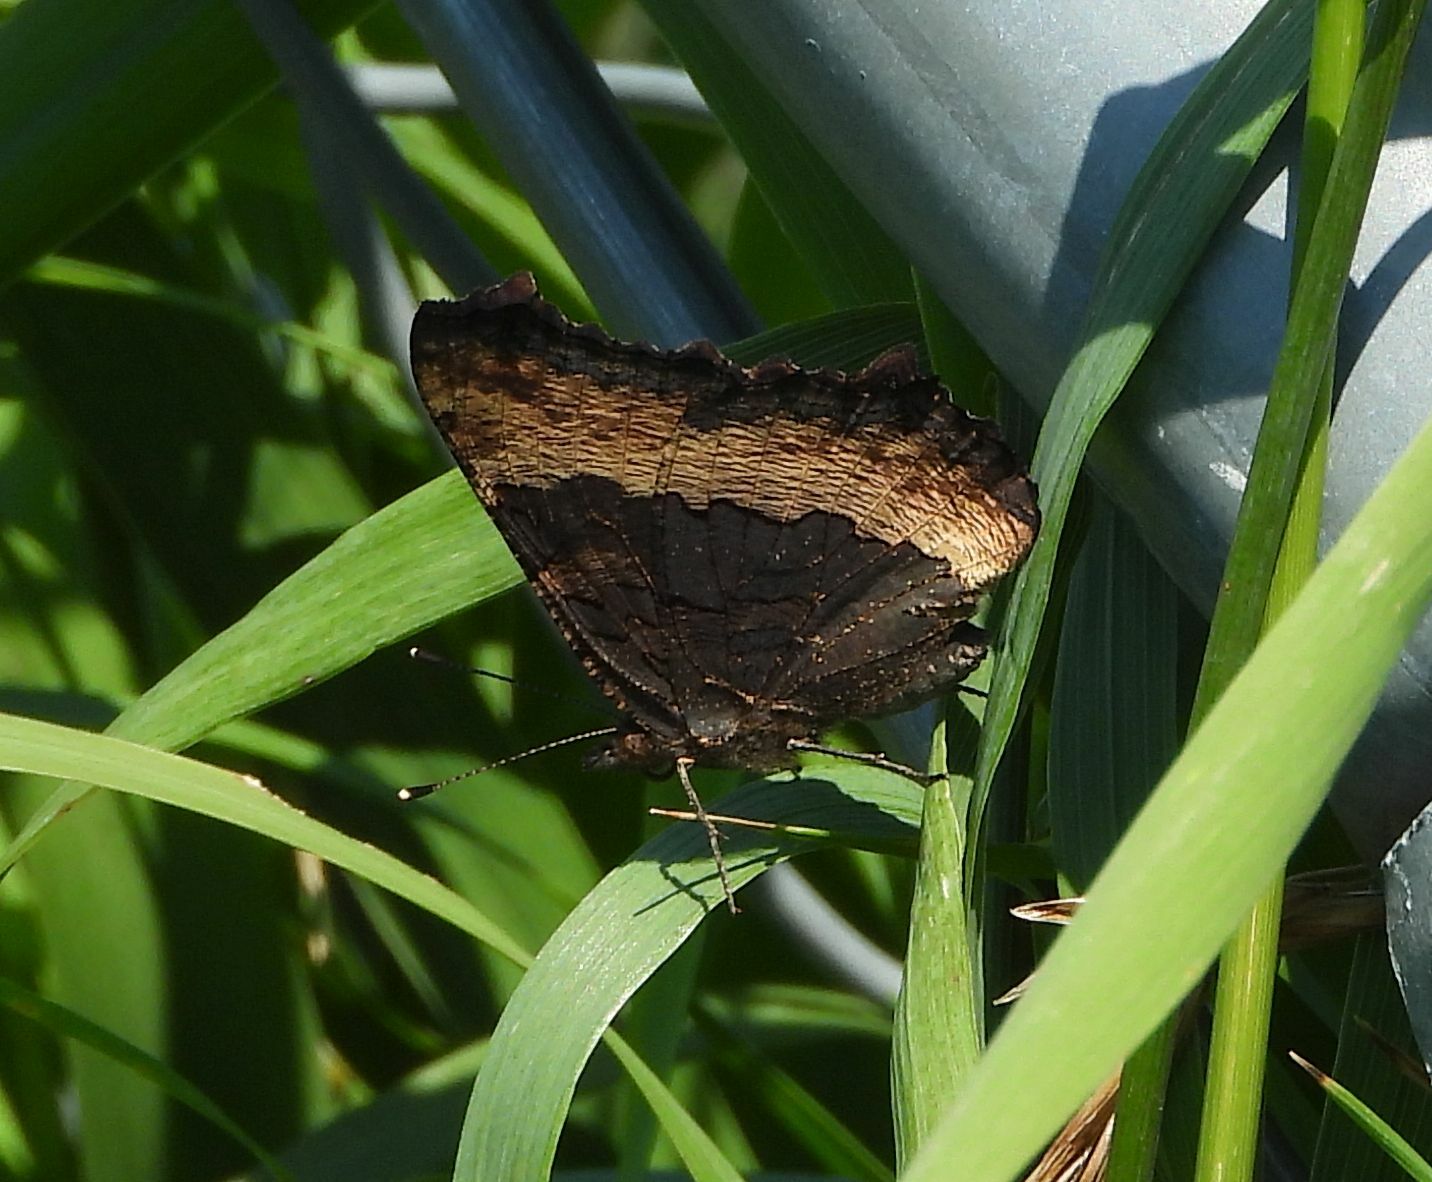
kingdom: Animalia
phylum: Arthropoda
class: Insecta
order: Lepidoptera
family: Nymphalidae
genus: Aglais
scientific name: Aglais milberti
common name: Milbert's tortoiseshell
